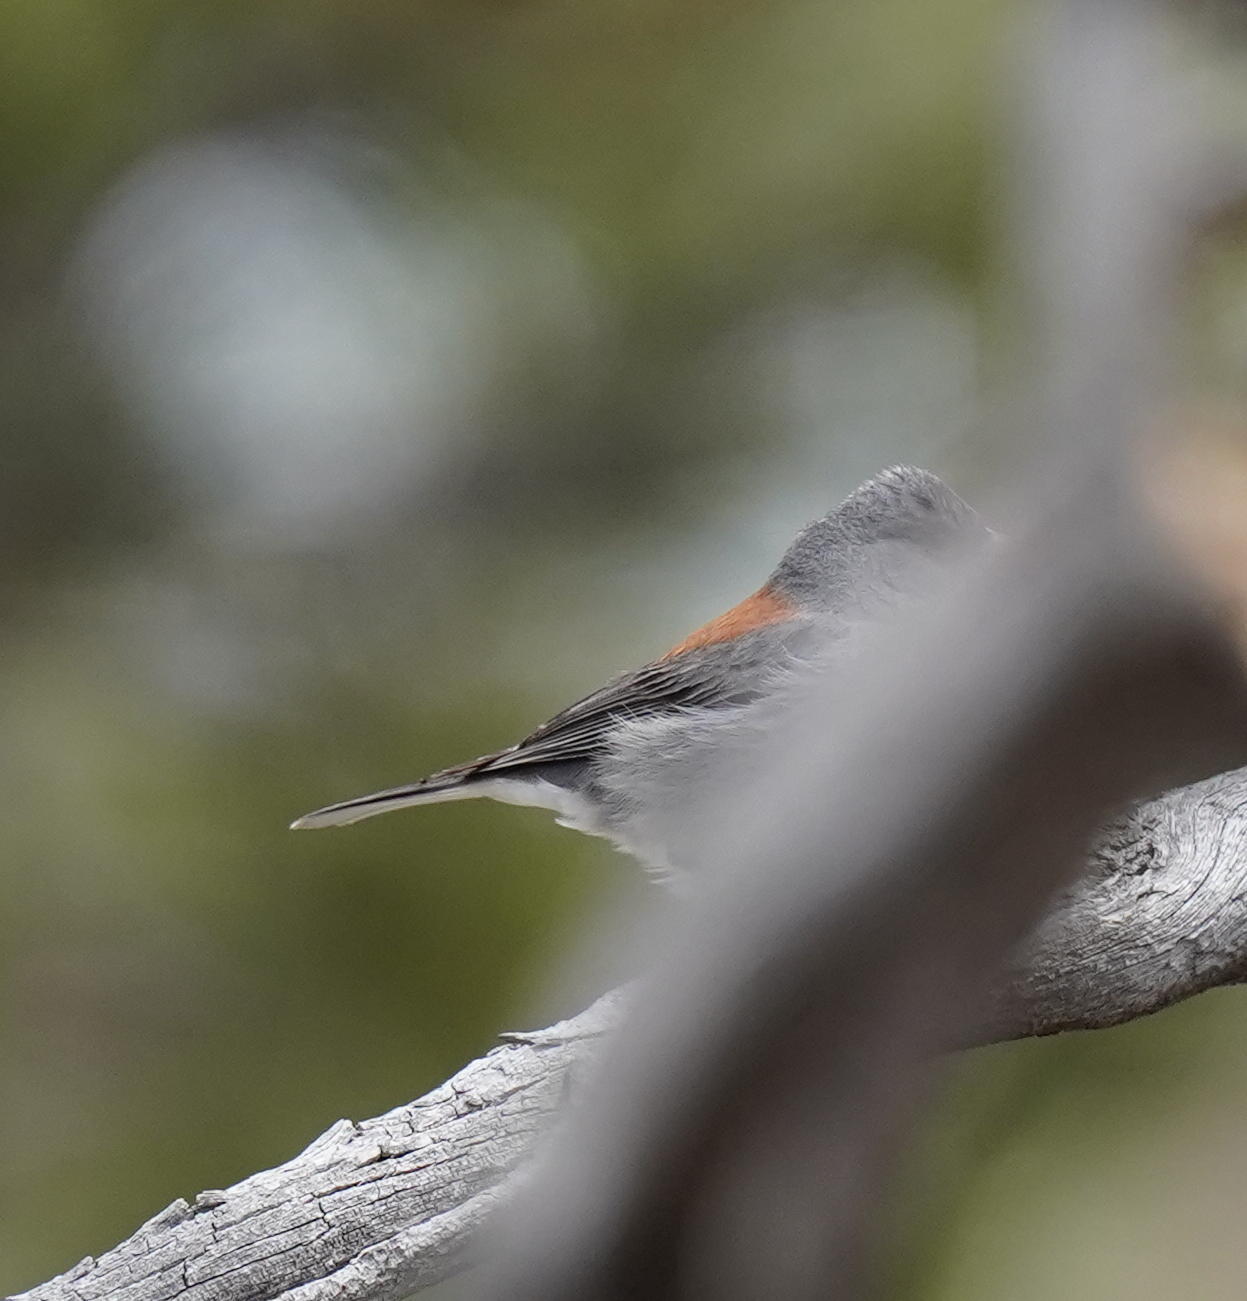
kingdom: Animalia
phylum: Chordata
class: Aves
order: Passeriformes
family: Passerellidae
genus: Junco
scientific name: Junco hyemalis
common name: Dark-eyed junco
